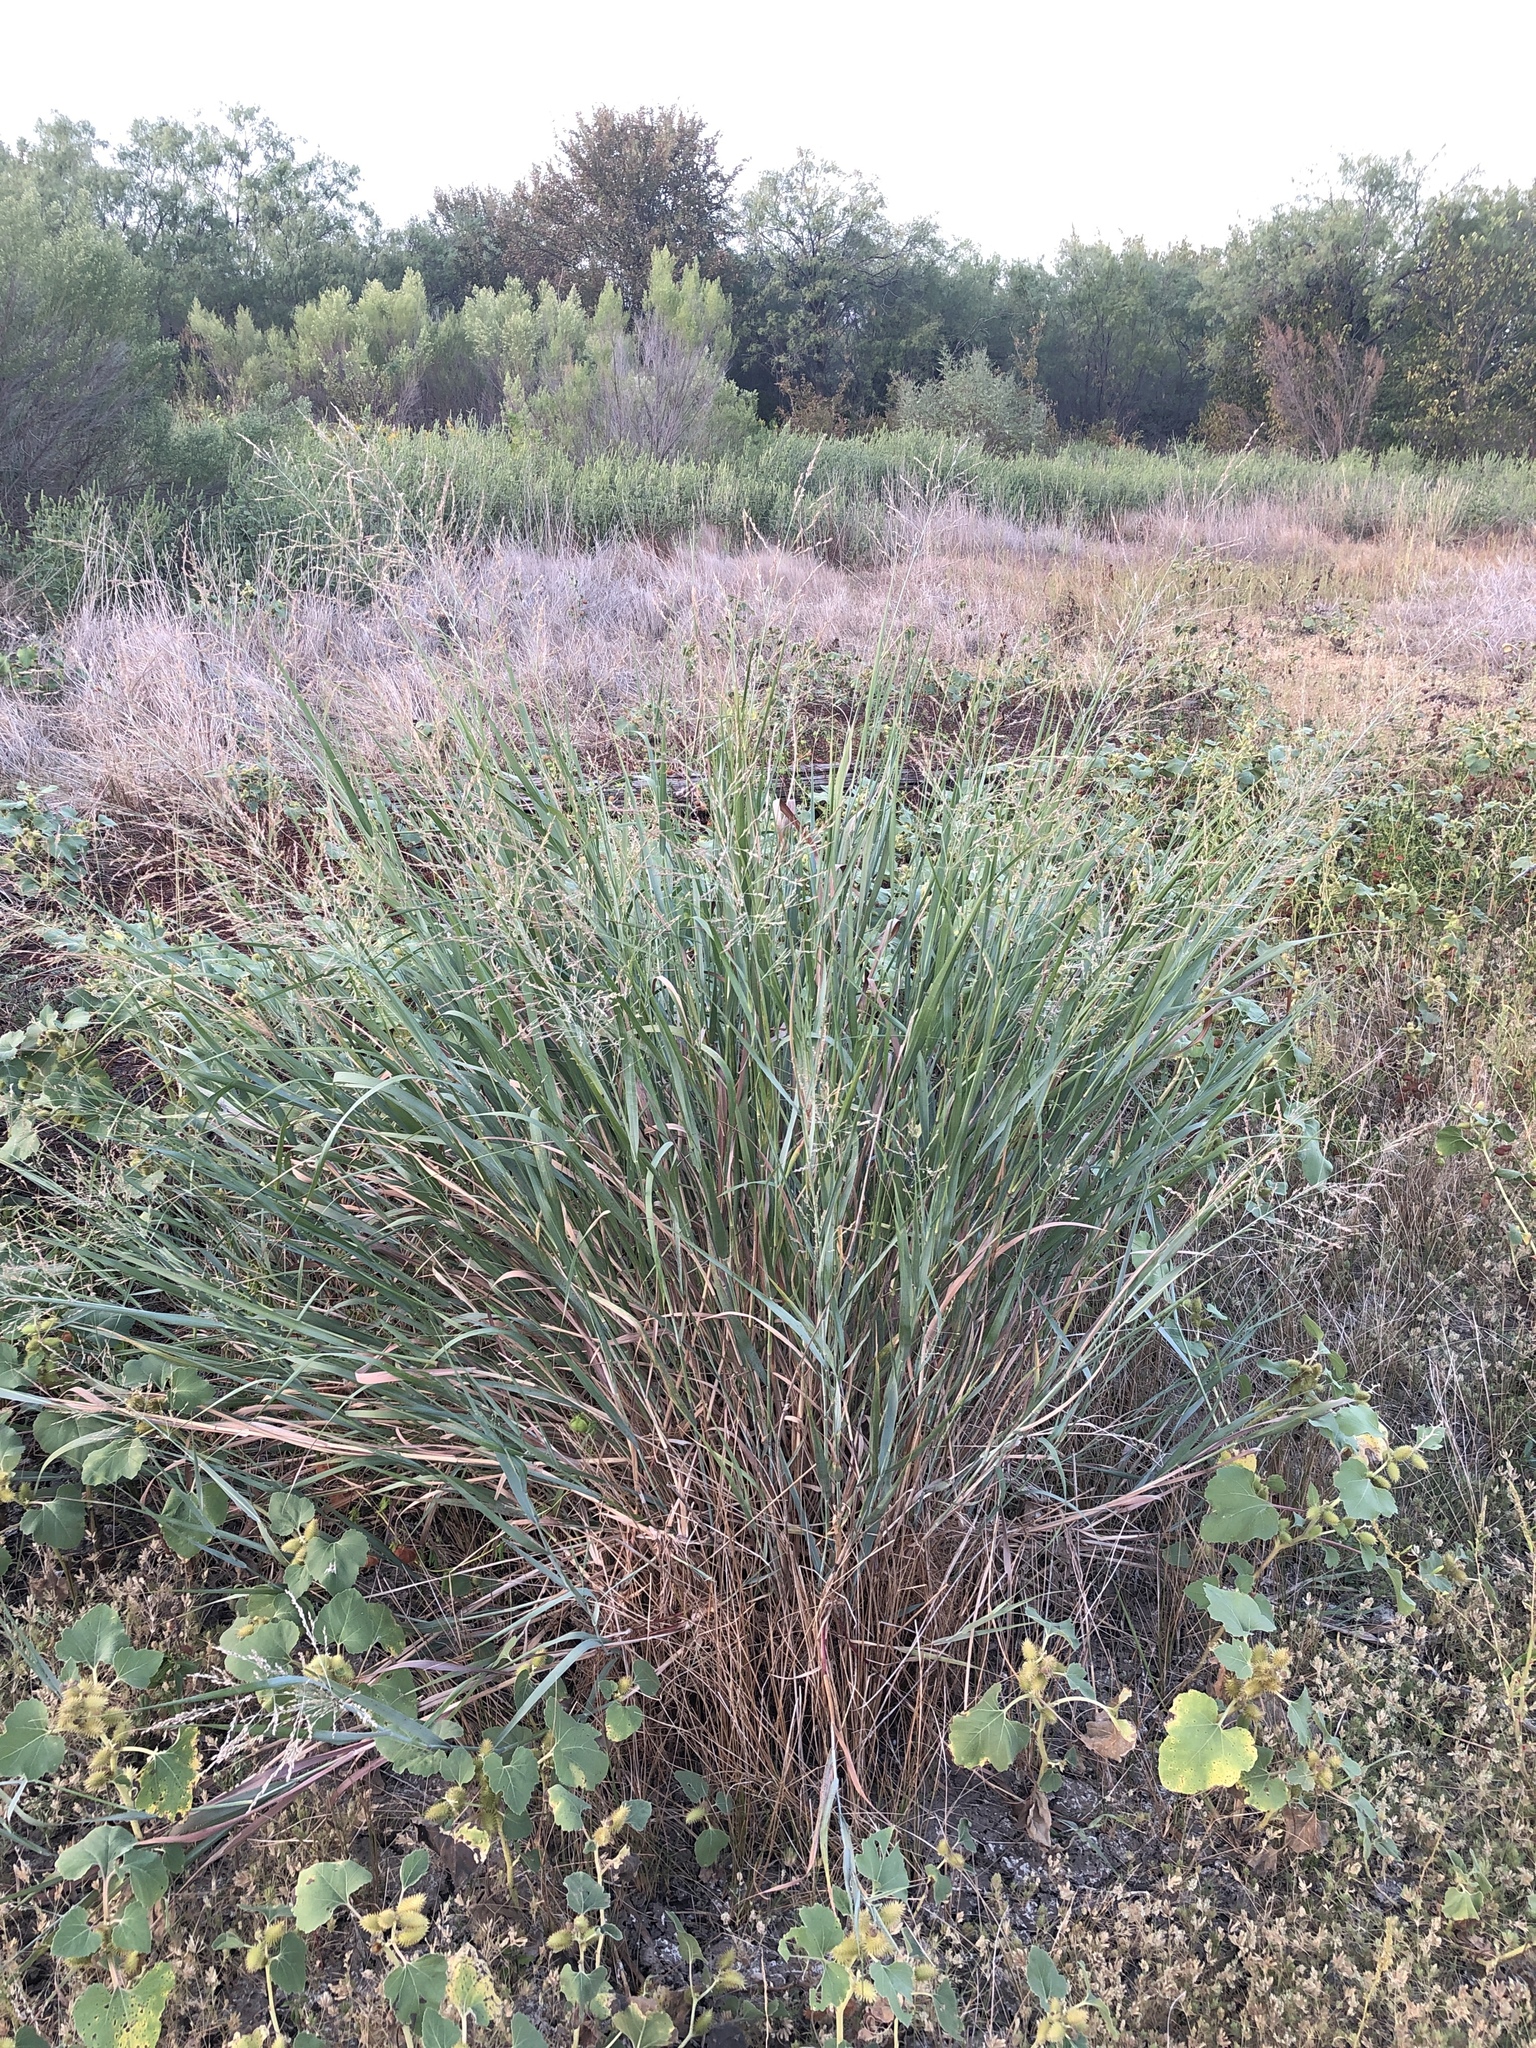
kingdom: Plantae
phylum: Tracheophyta
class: Liliopsida
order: Poales
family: Poaceae
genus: Panicum
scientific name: Panicum virgatum
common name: Switchgrass
